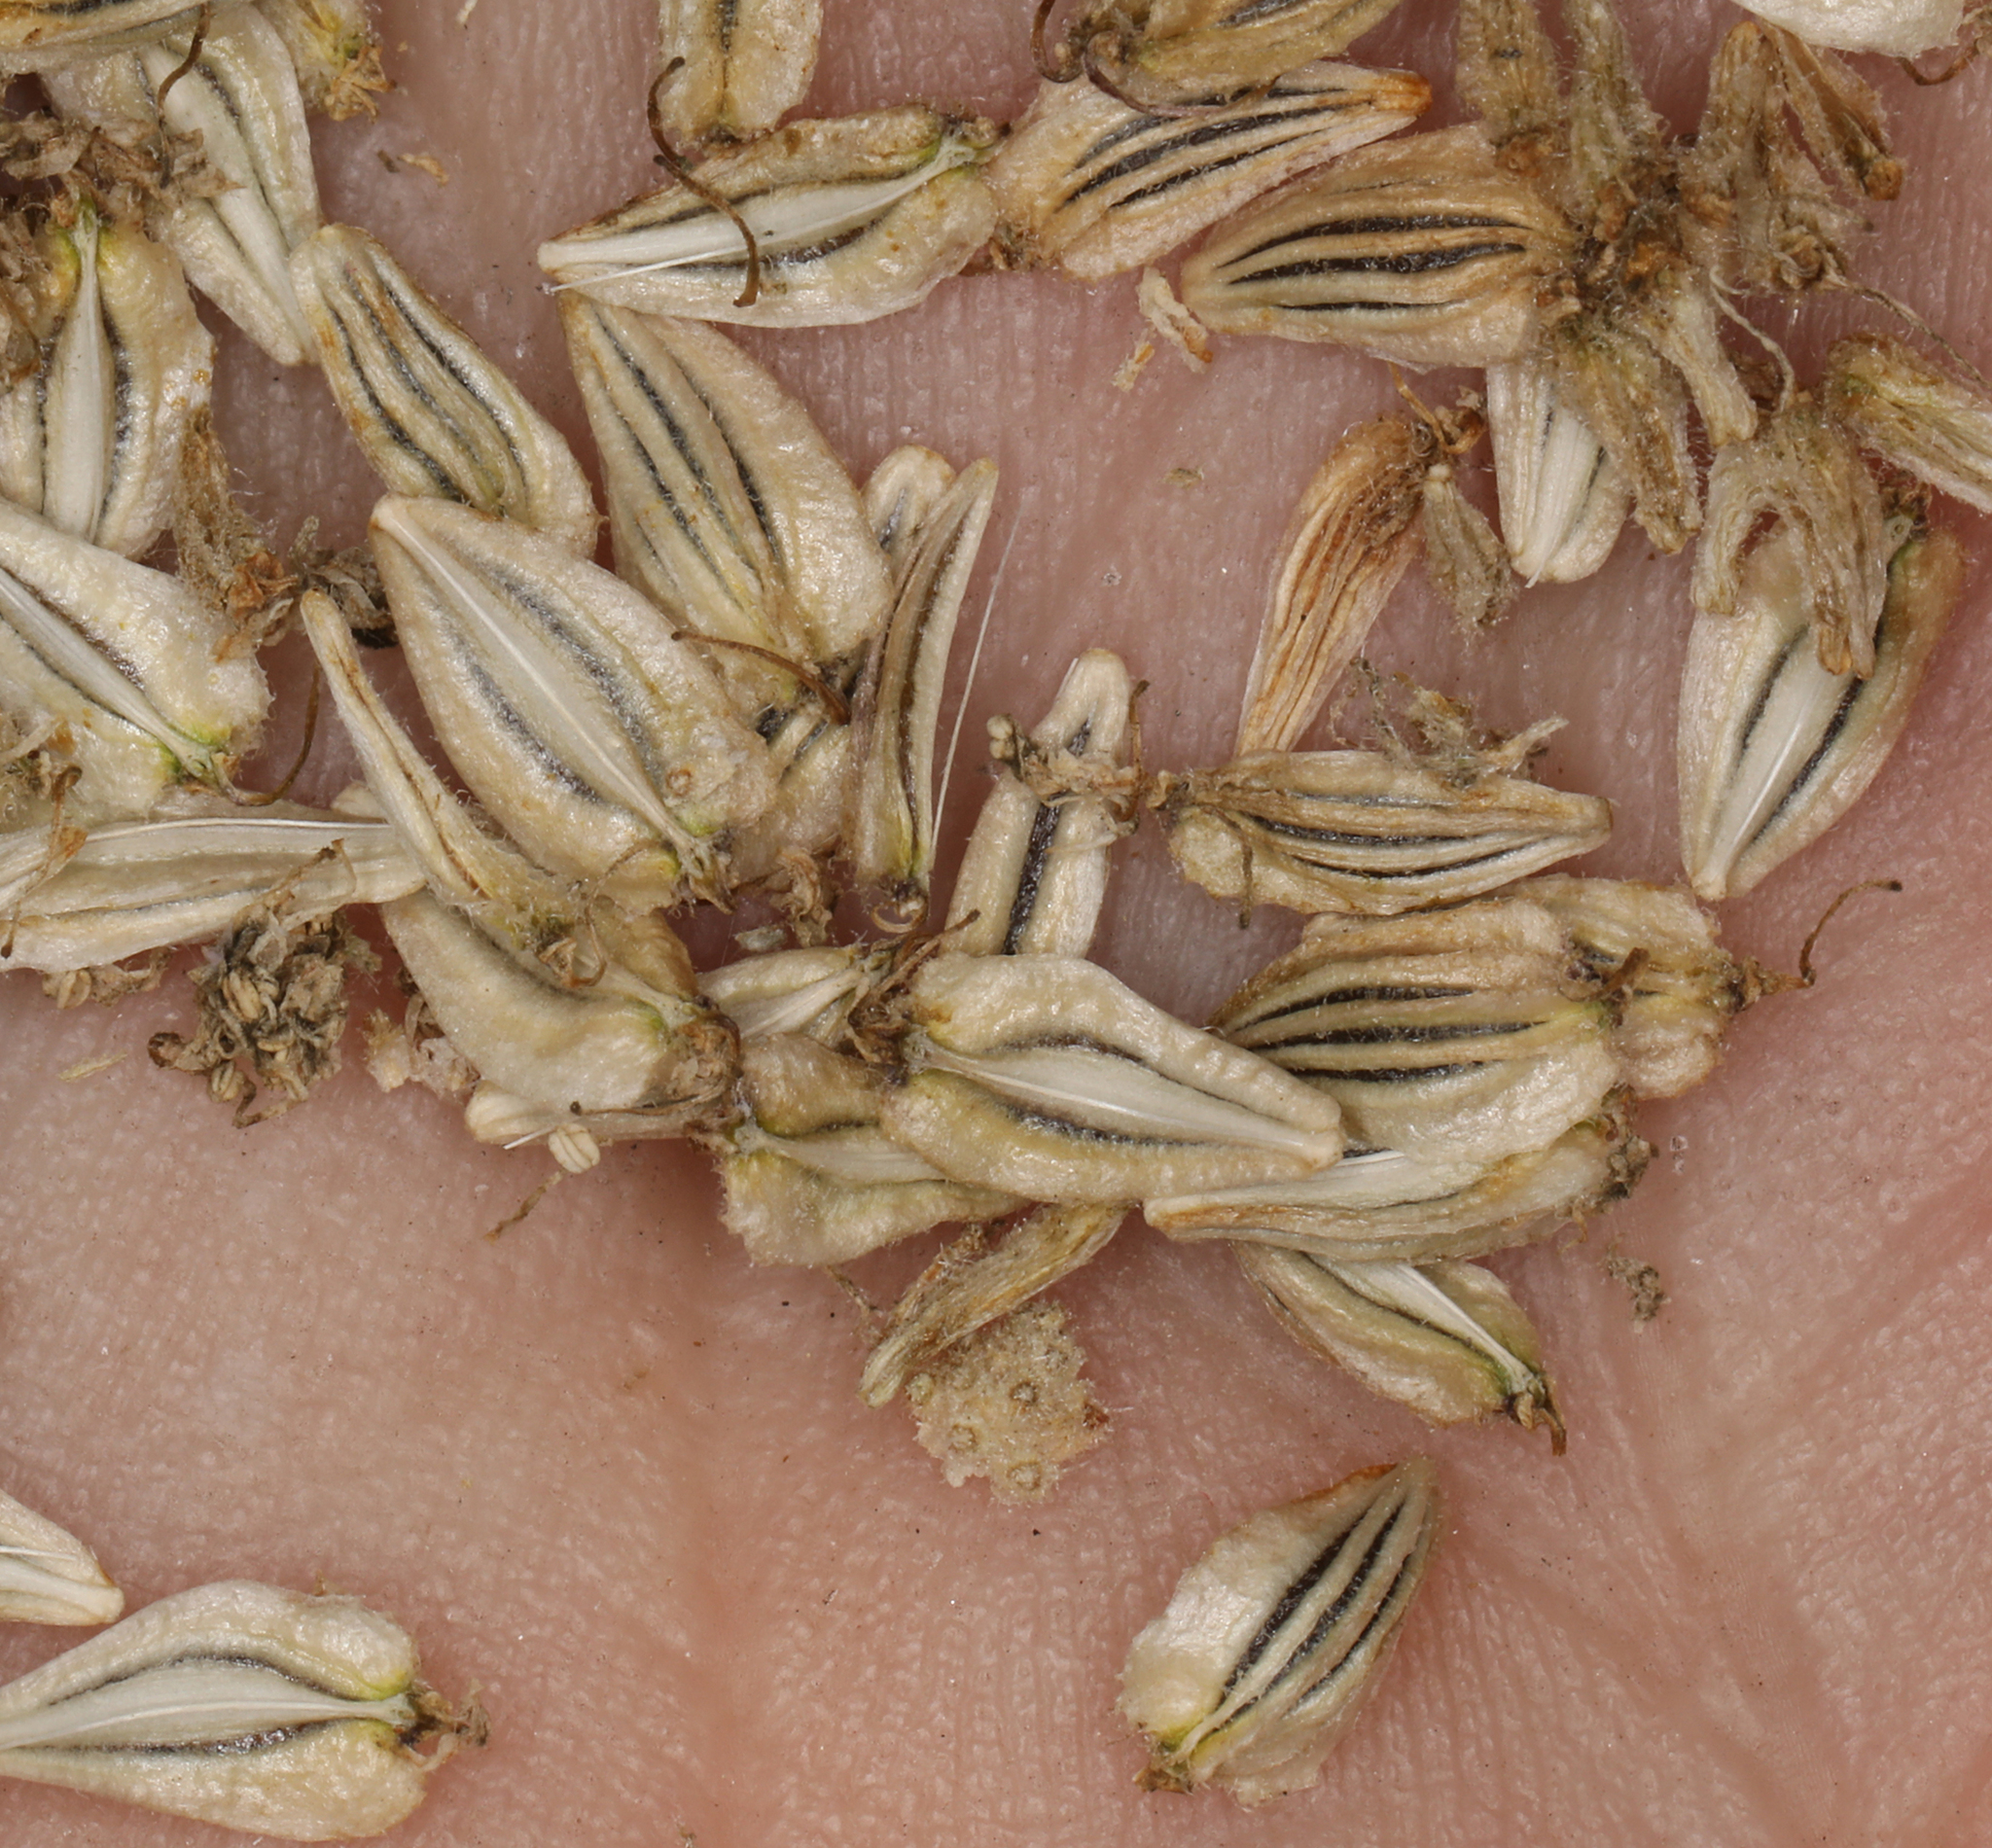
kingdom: Plantae
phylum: Tracheophyta
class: Magnoliopsida
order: Apiales
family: Apiaceae
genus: Angelica
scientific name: Angelica capitellata
